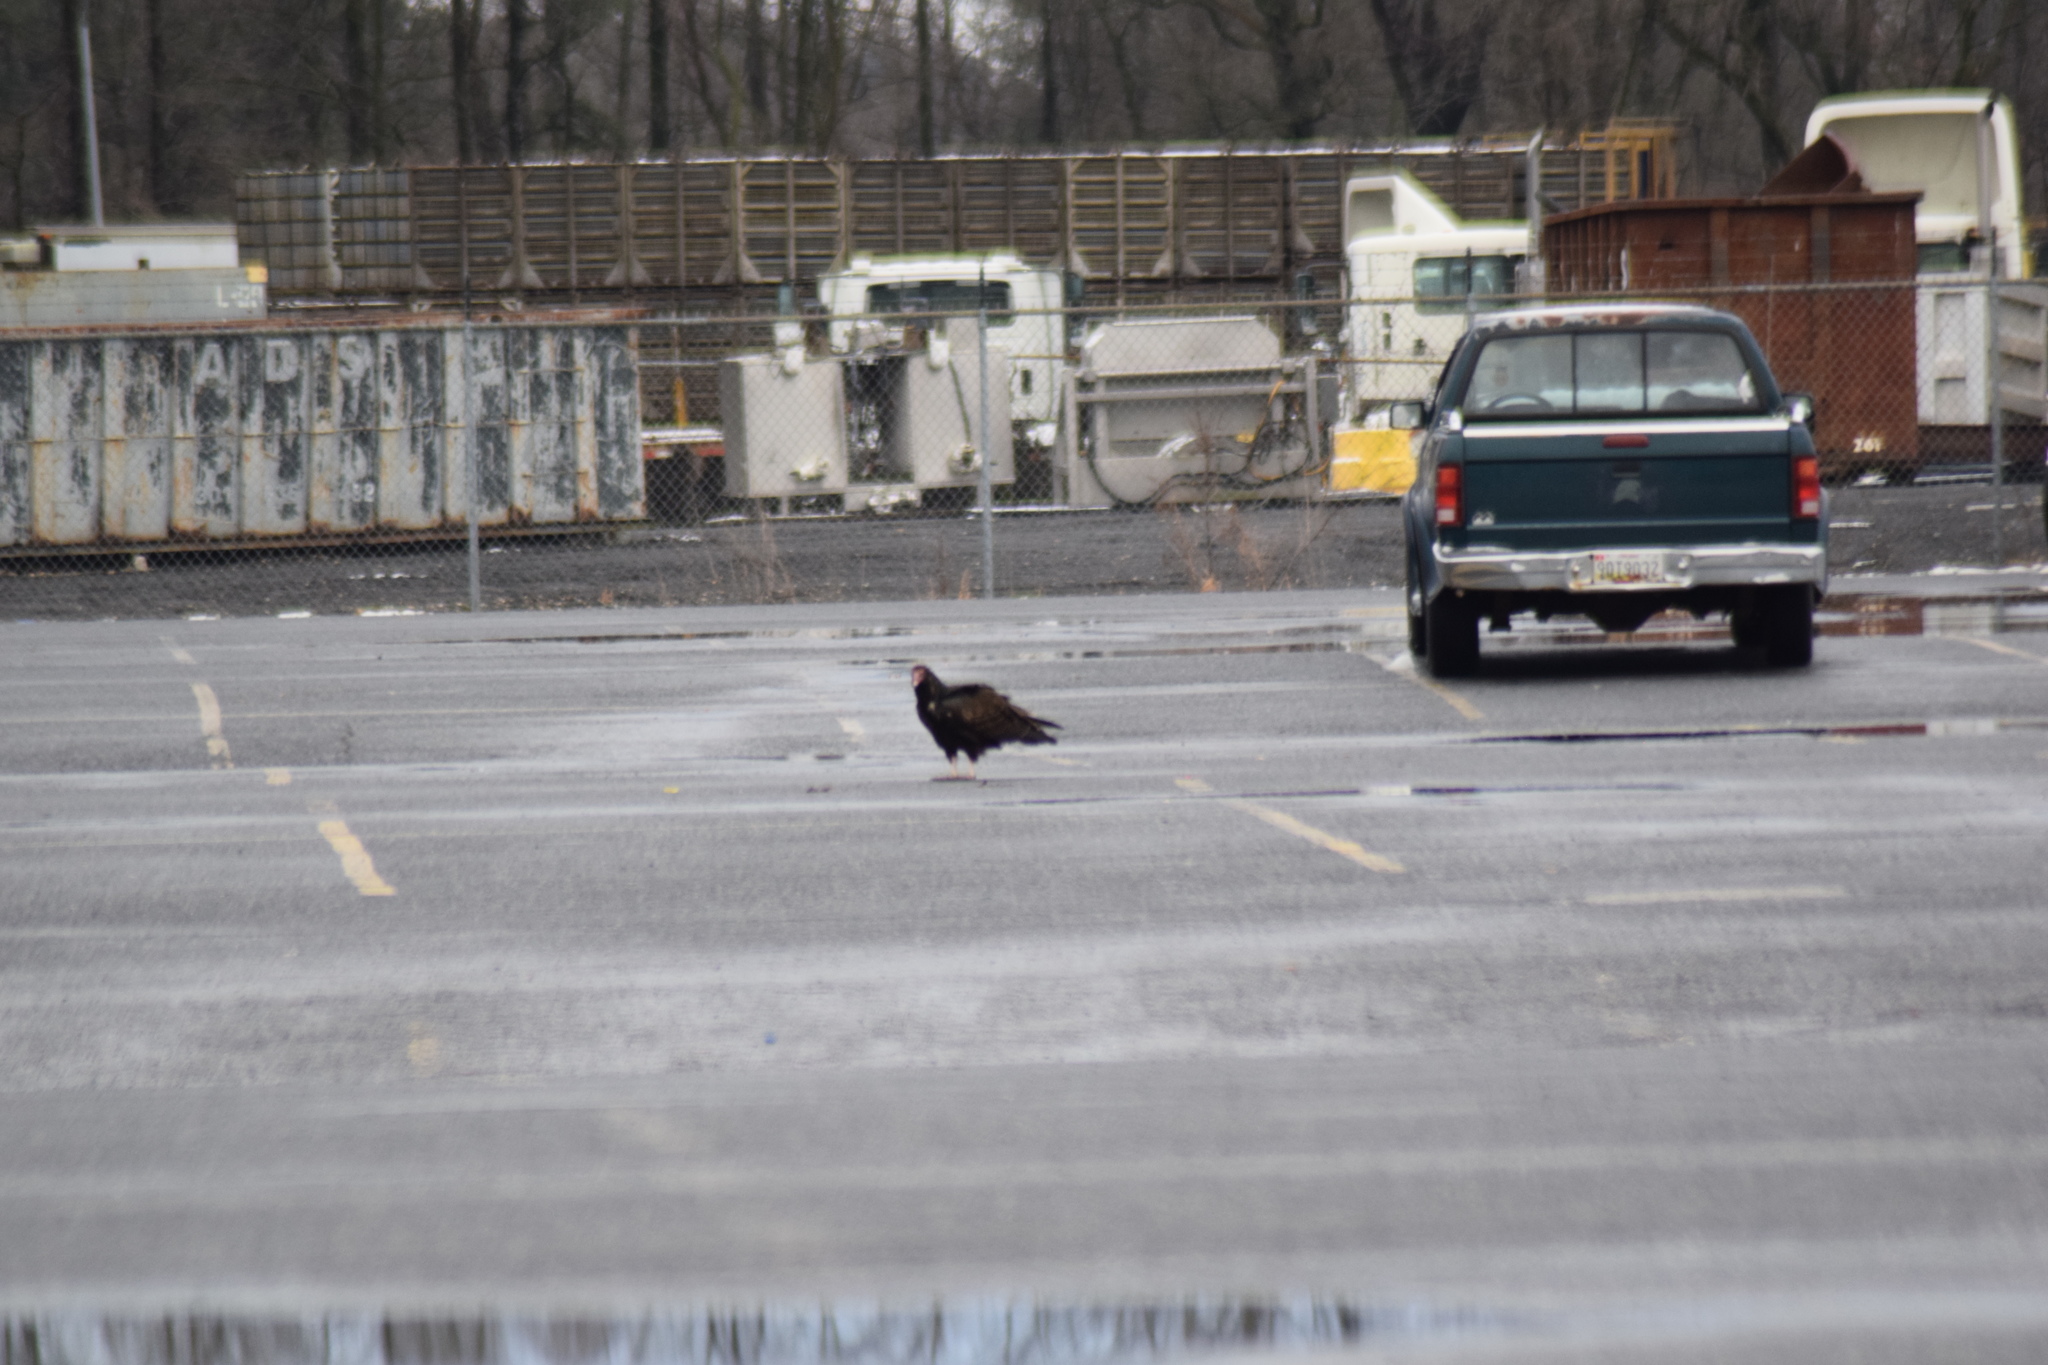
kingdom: Animalia
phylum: Chordata
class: Aves
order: Accipitriformes
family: Cathartidae
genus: Cathartes
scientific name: Cathartes aura
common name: Turkey vulture
